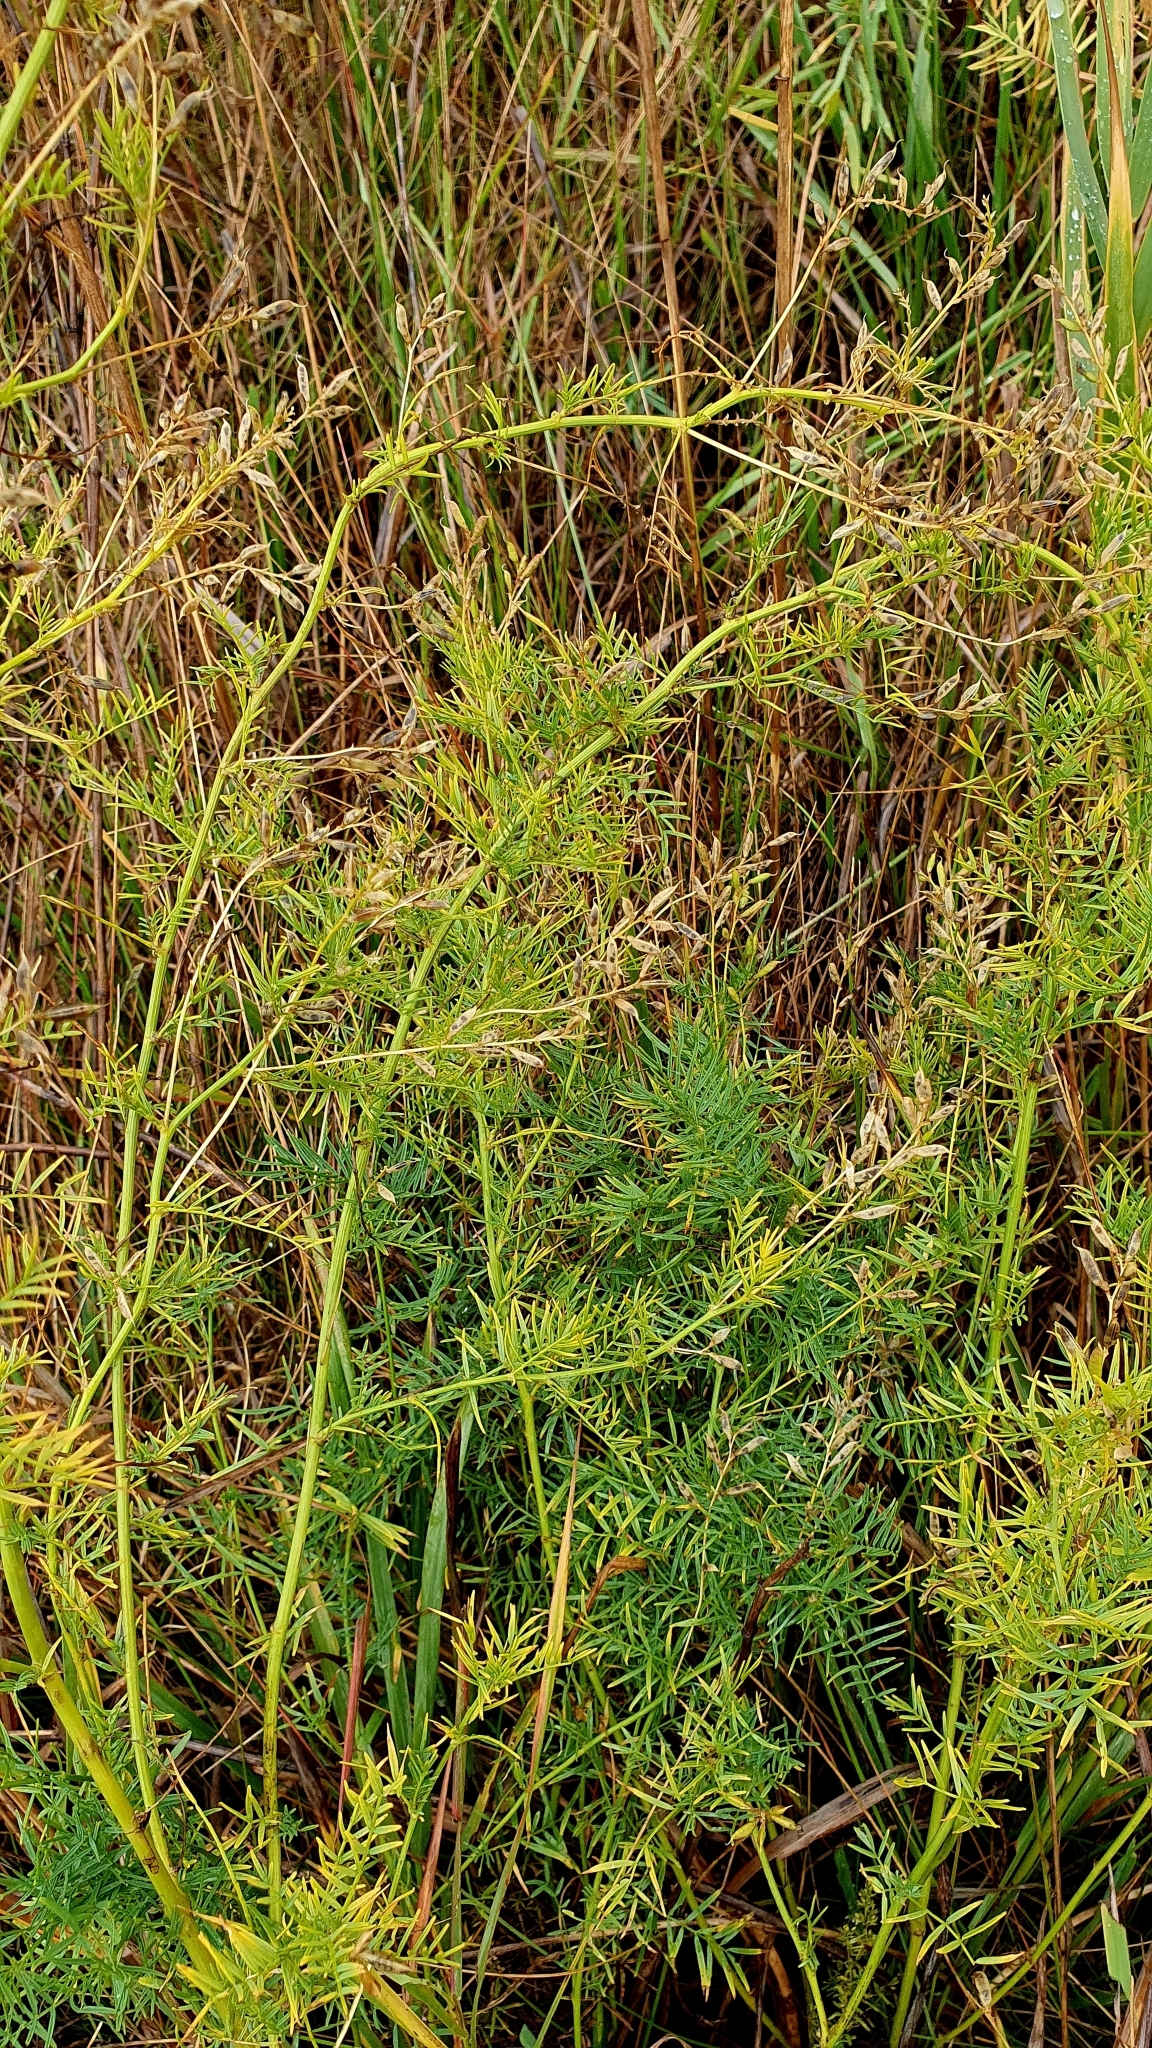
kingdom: Plantae
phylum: Tracheophyta
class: Magnoliopsida
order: Fabales
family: Fabaceae
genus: Astragalus
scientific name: Astragalus sulcatus
